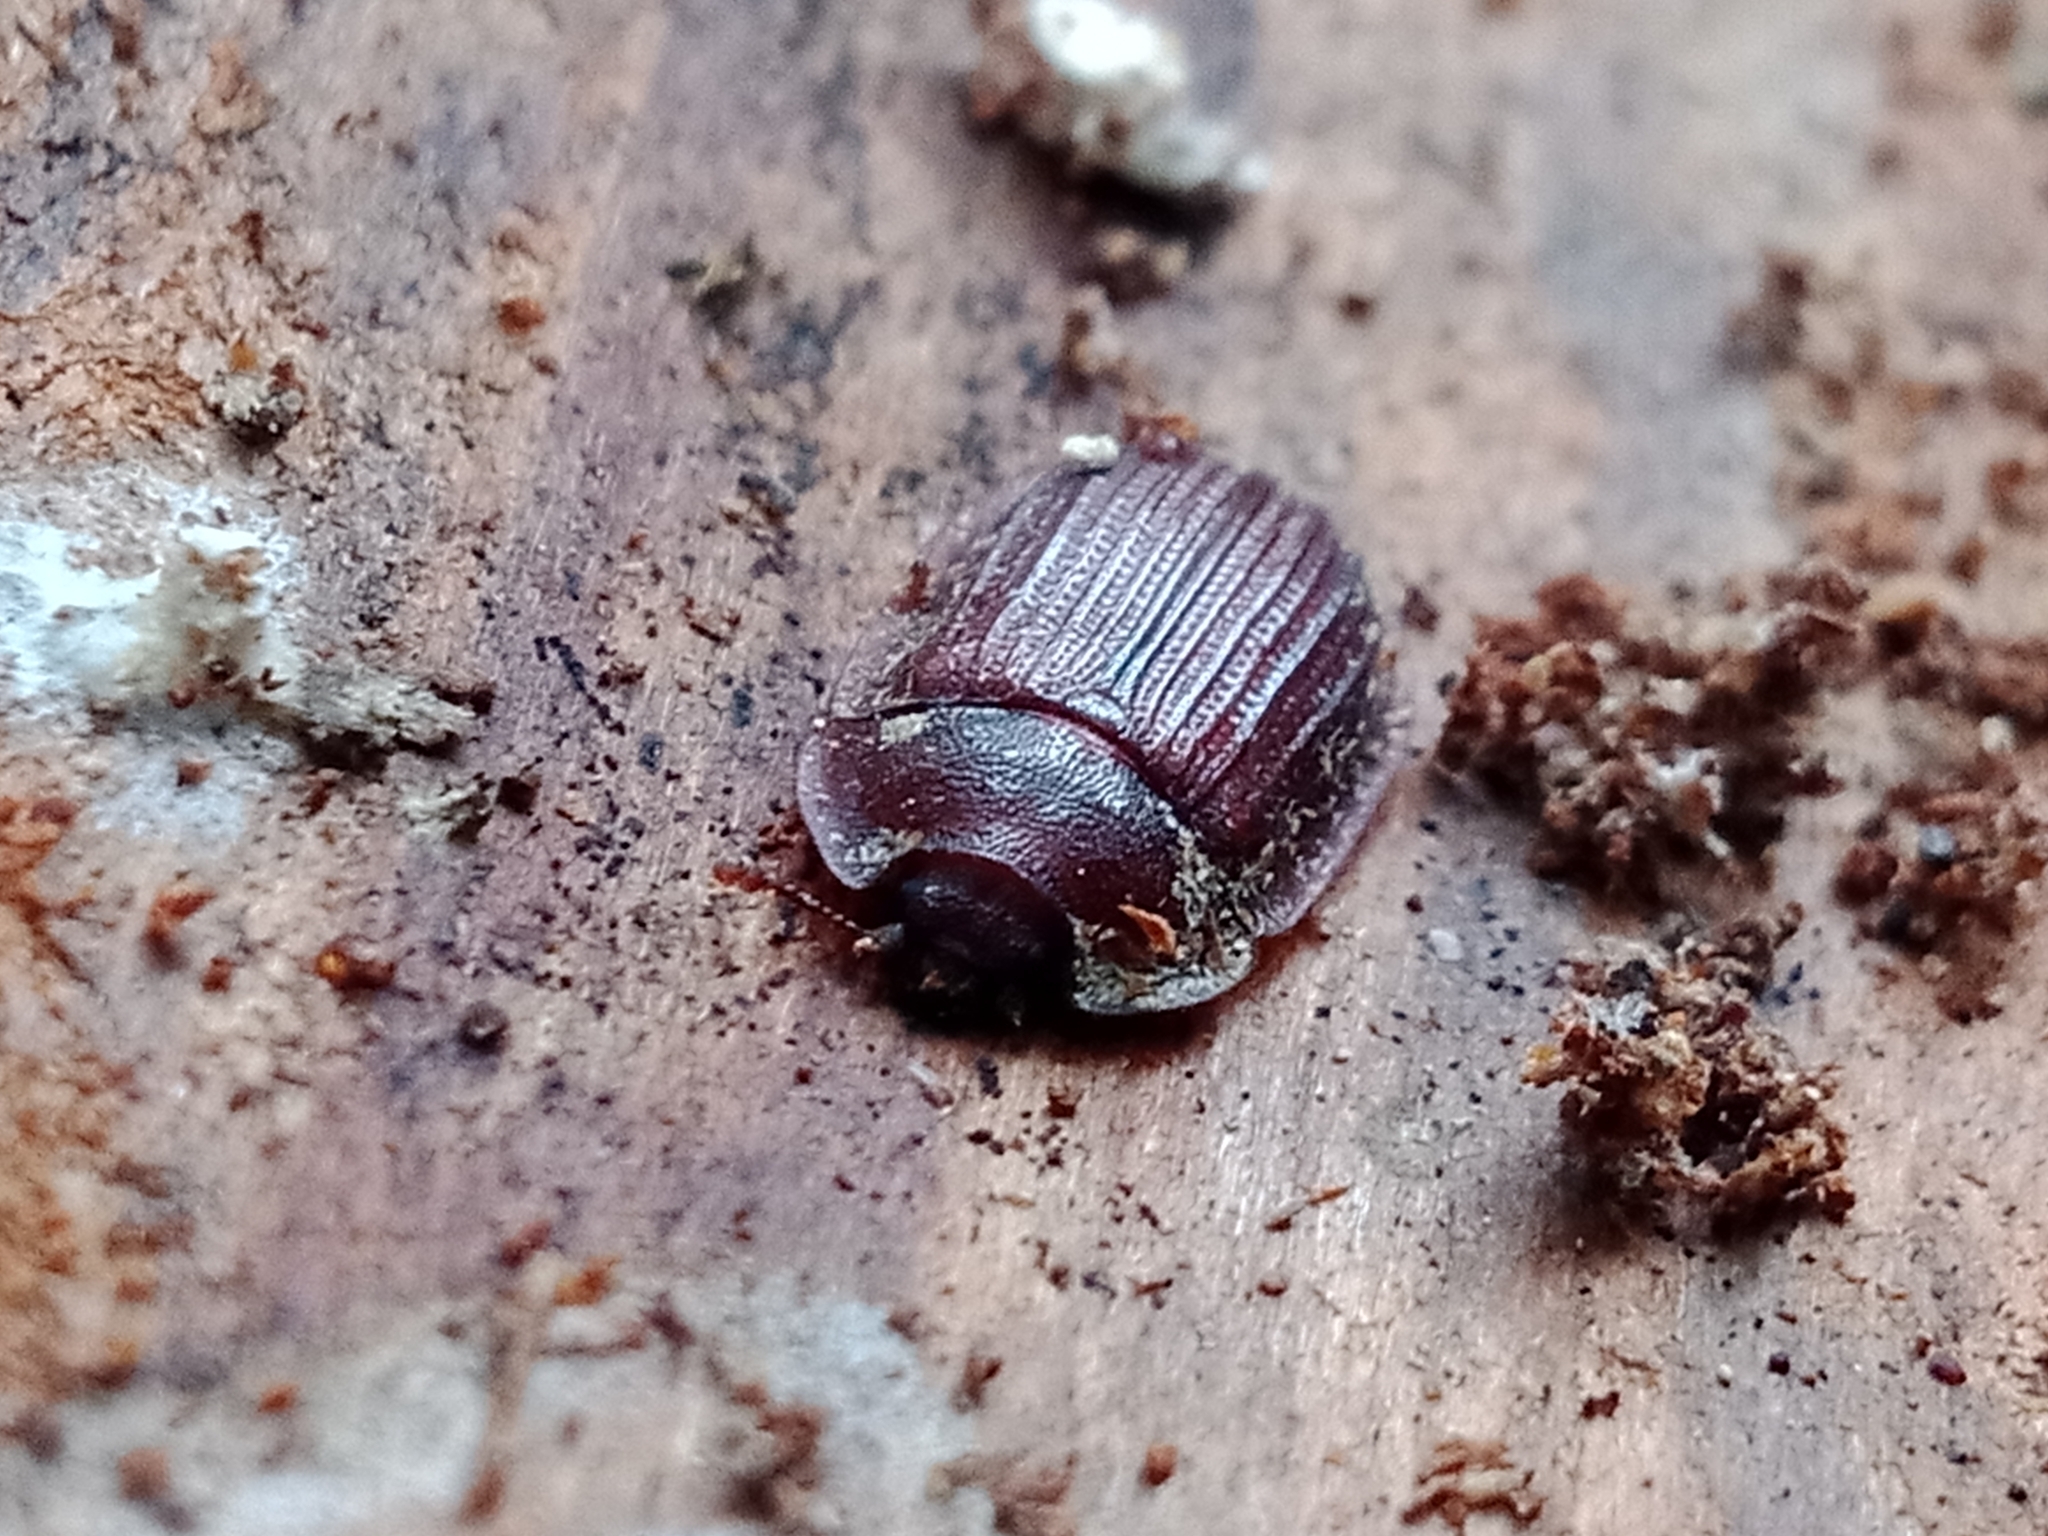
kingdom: Animalia
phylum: Arthropoda
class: Insecta
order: Coleoptera
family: Trogossitidae
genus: Peltis
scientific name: Peltis ferruginea
